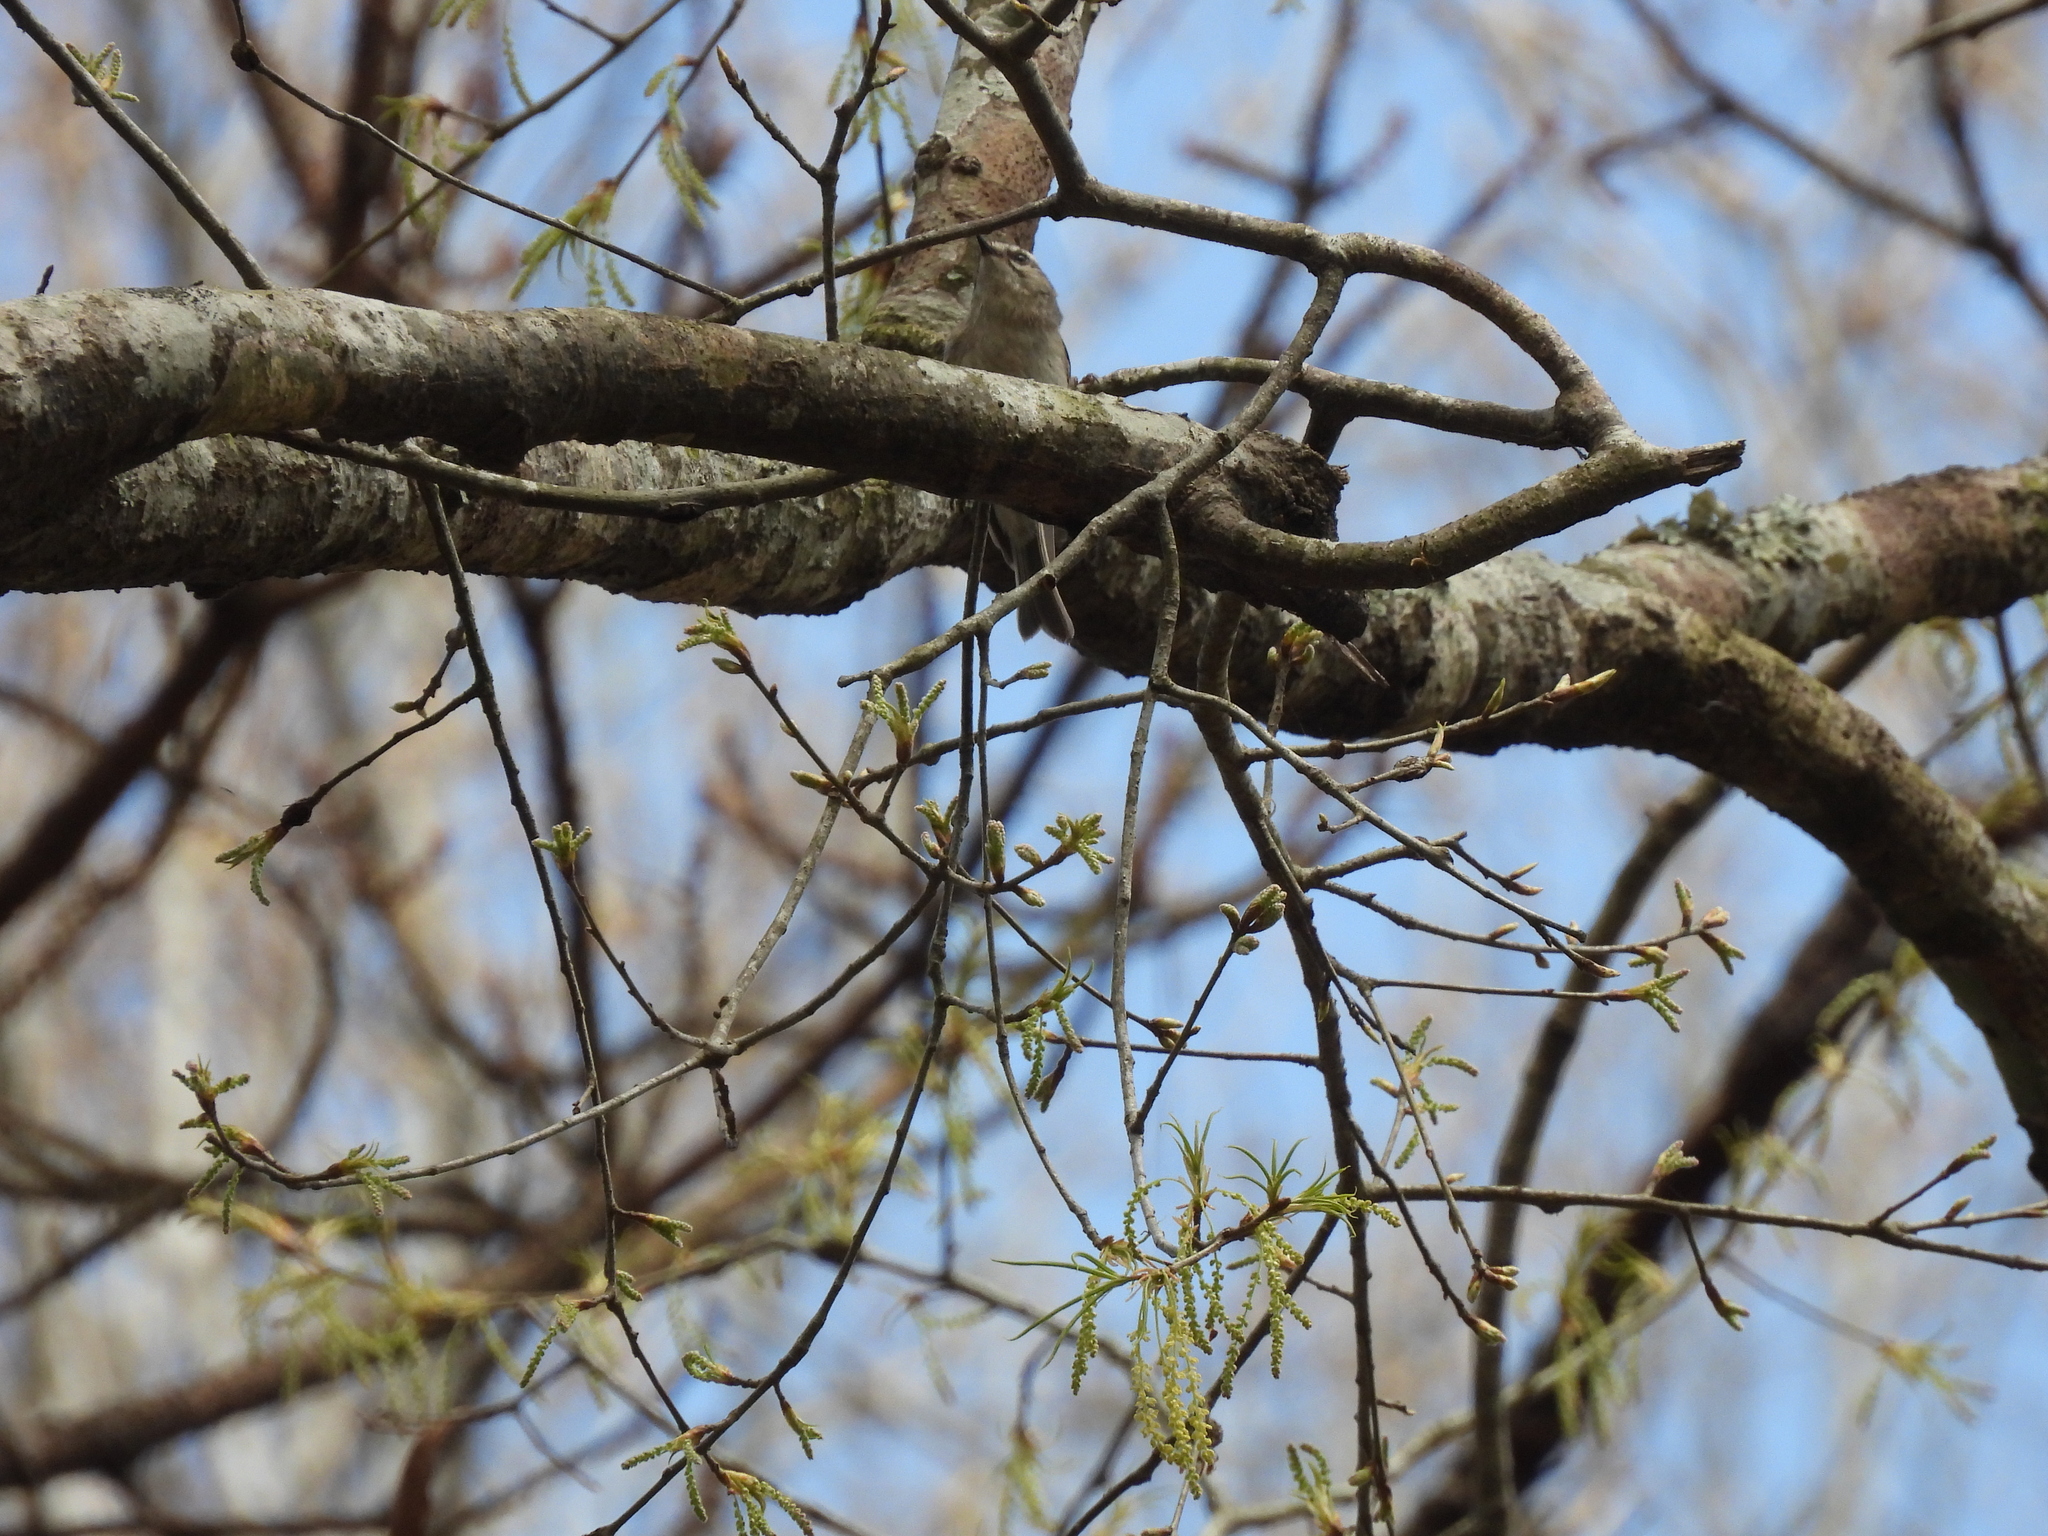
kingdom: Animalia
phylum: Chordata
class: Aves
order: Passeriformes
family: Regulidae
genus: Regulus
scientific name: Regulus satrapa
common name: Golden-crowned kinglet
